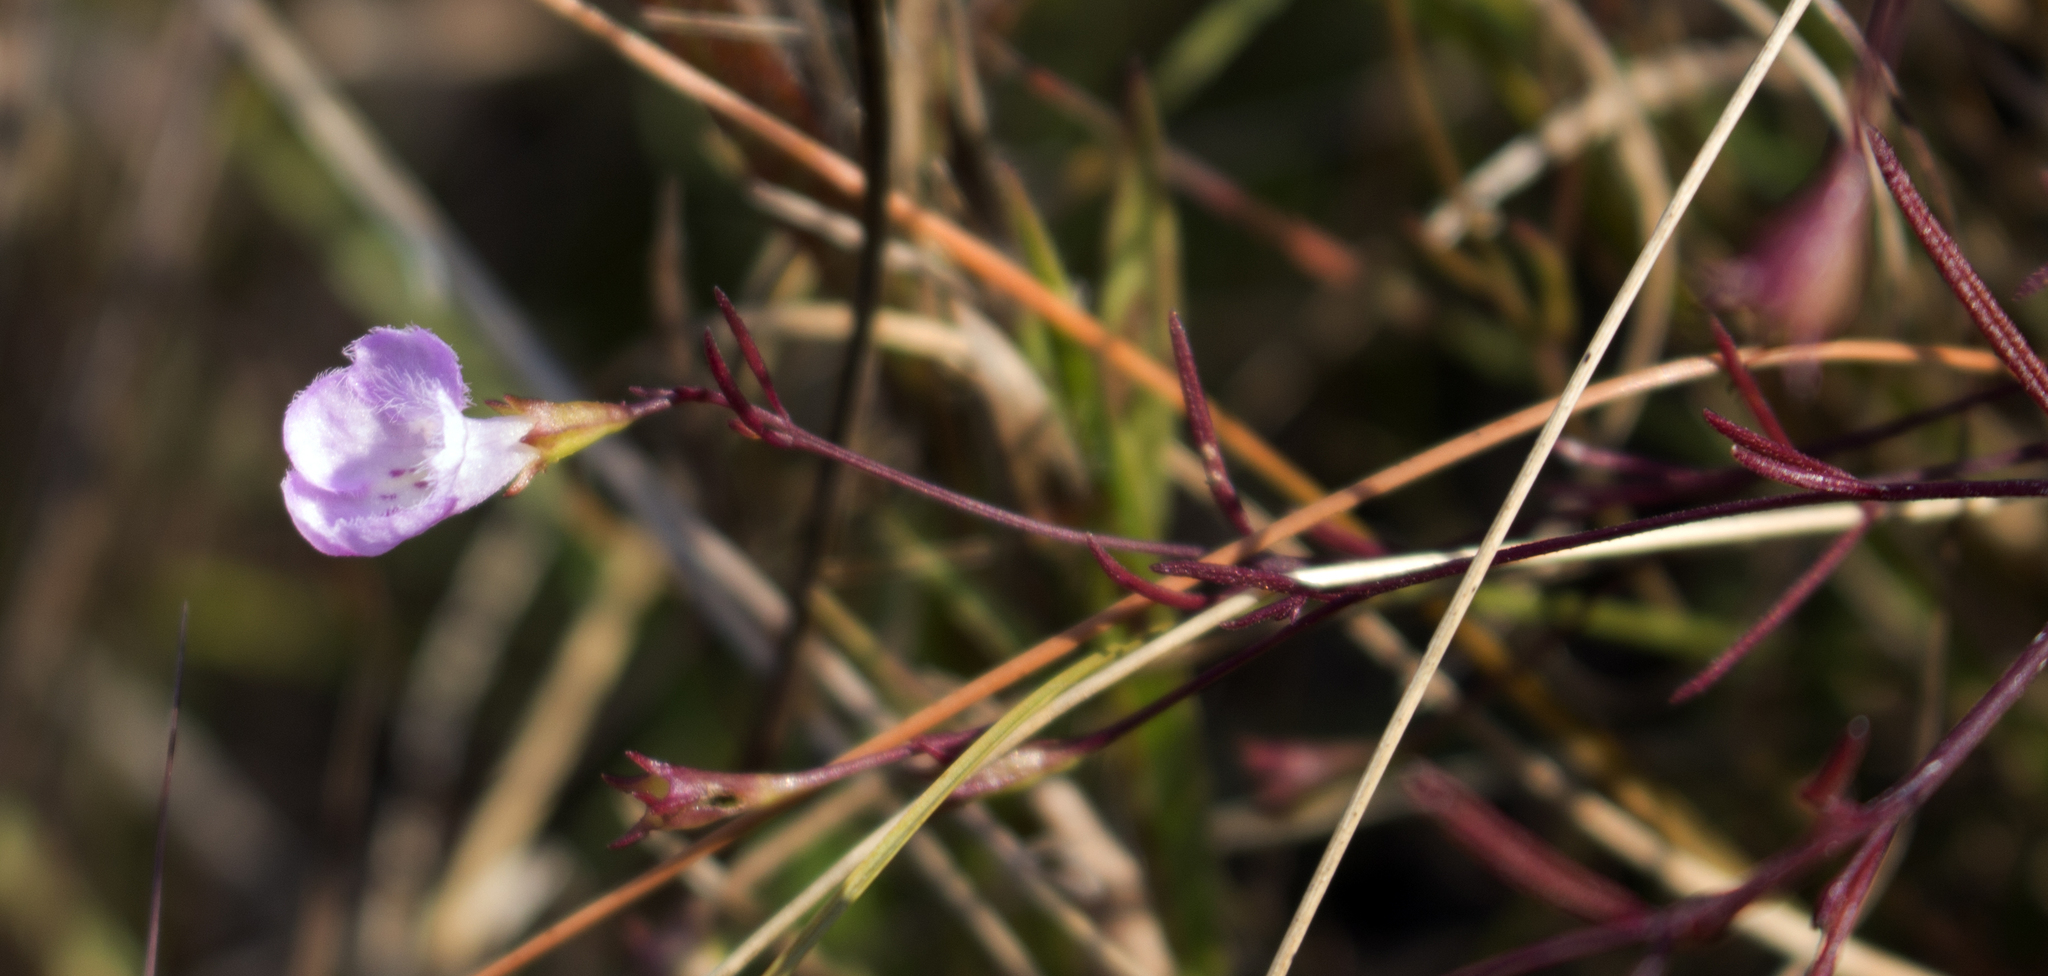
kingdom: Plantae
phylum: Tracheophyta
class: Magnoliopsida
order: Lamiales
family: Orobanchaceae
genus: Agalinis
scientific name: Agalinis gattingeri
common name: Gattinger's agalinis
